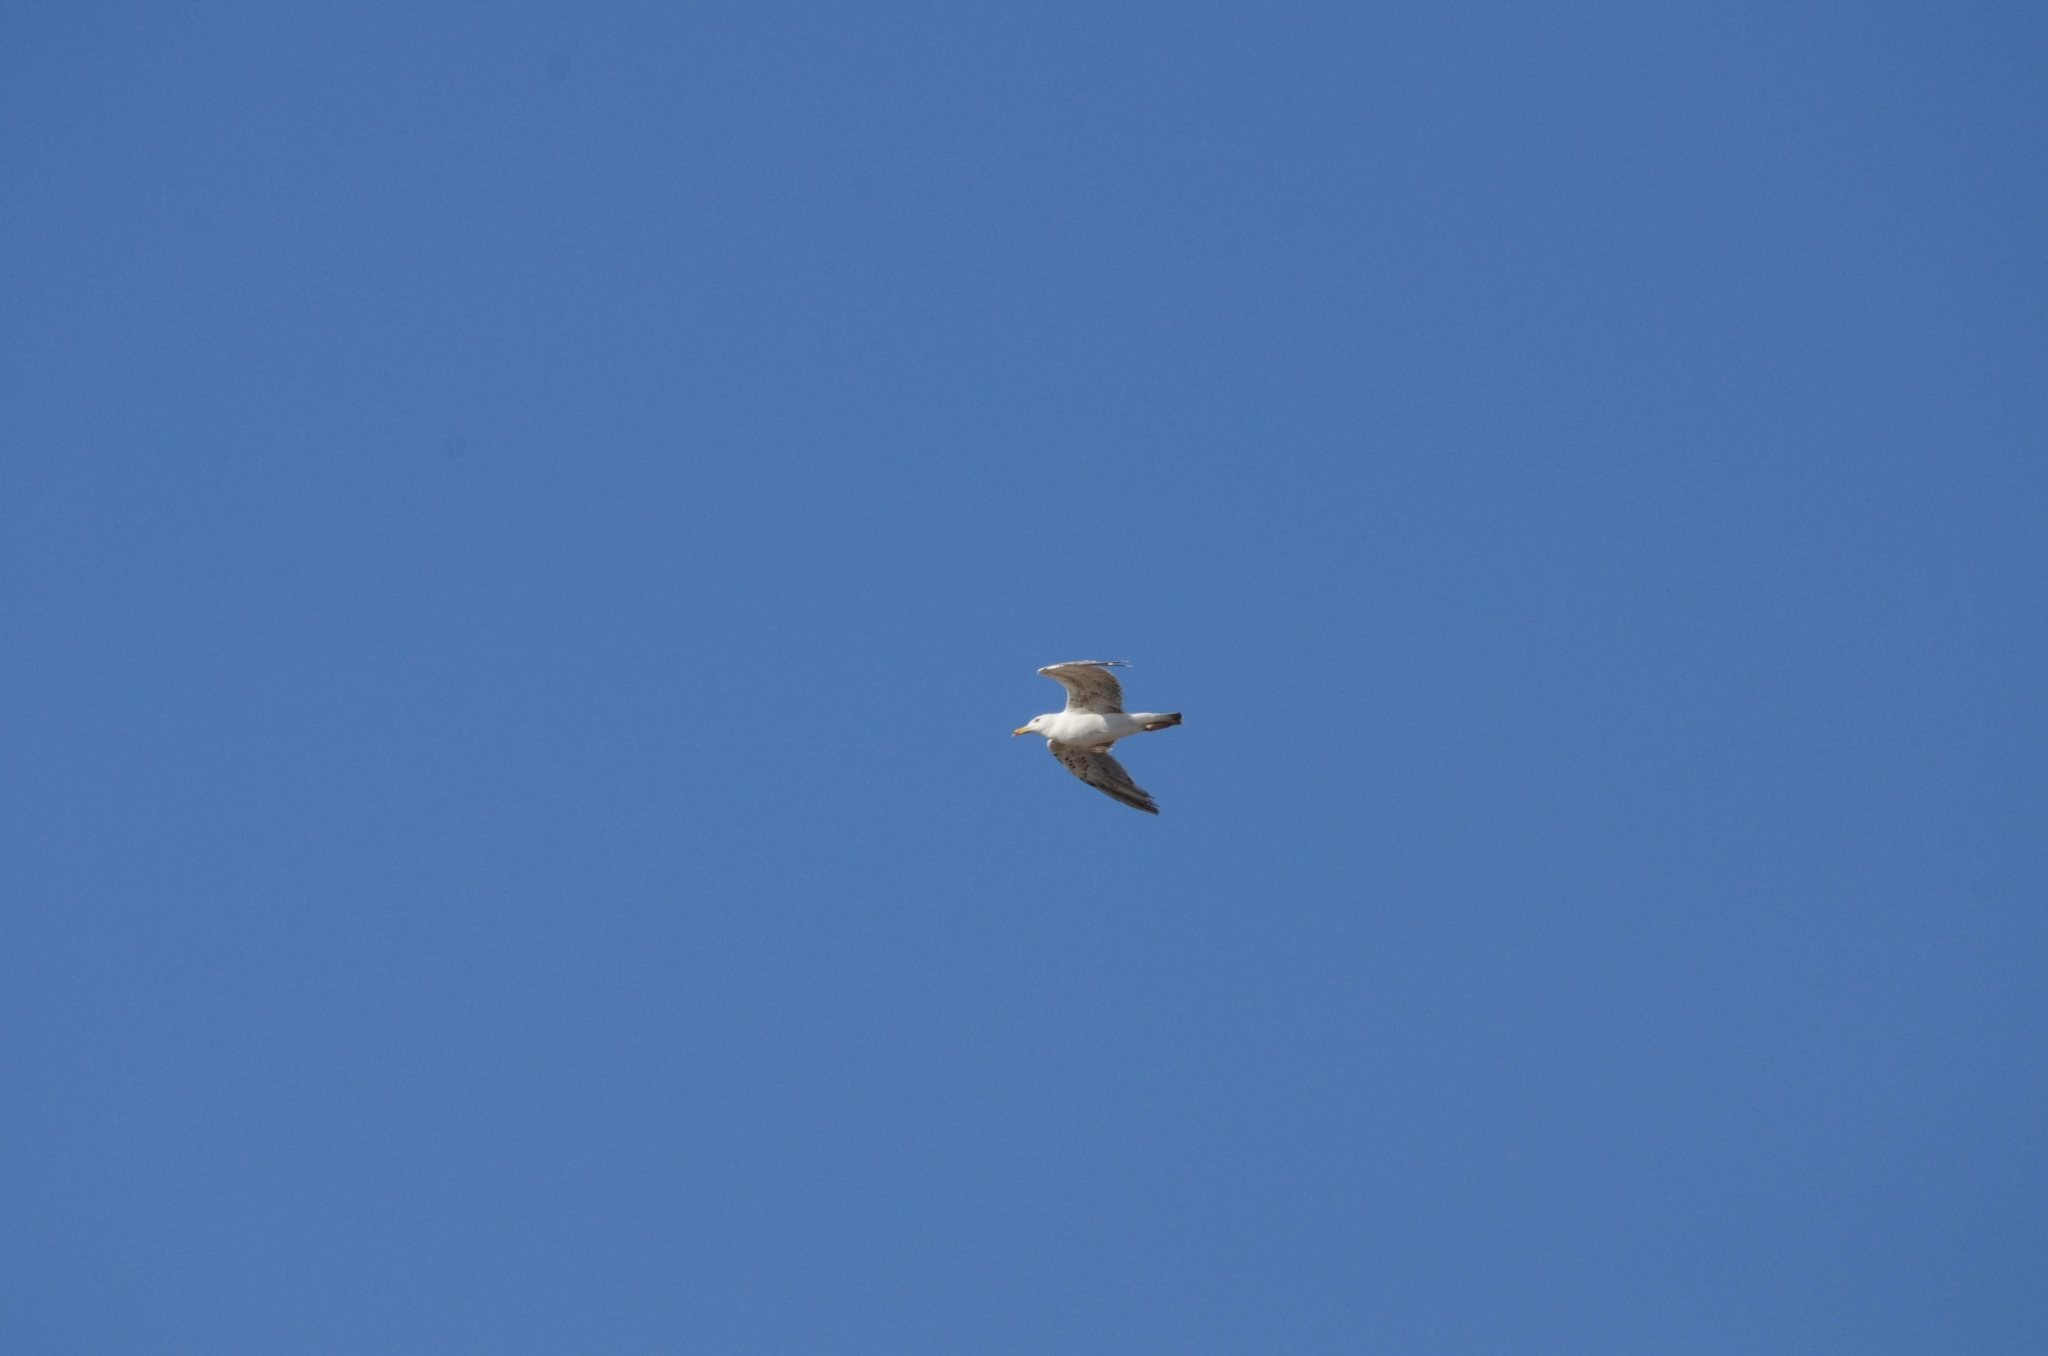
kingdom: Animalia
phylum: Chordata
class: Aves
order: Charadriiformes
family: Laridae
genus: Larus
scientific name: Larus michahellis
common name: Yellow-legged gull
